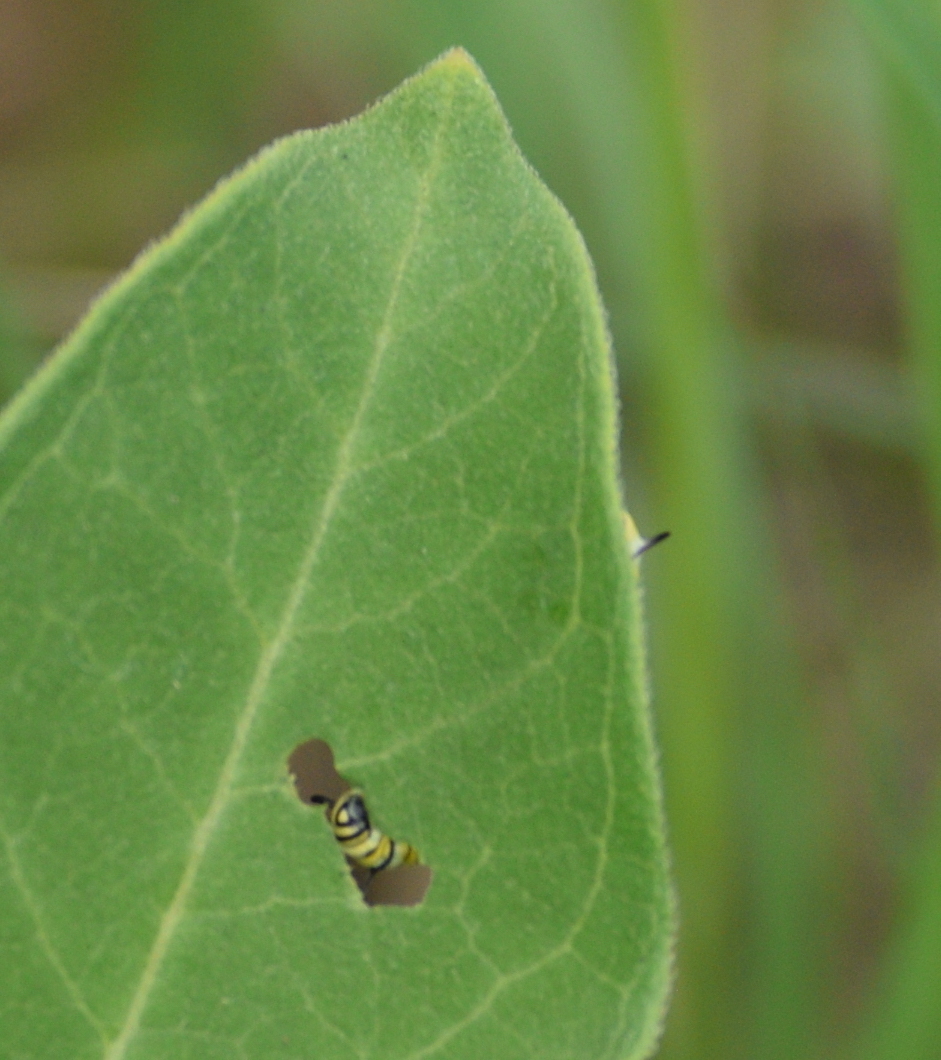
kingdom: Animalia
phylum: Arthropoda
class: Insecta
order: Lepidoptera
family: Nymphalidae
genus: Danaus
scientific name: Danaus plexippus
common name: Monarch
